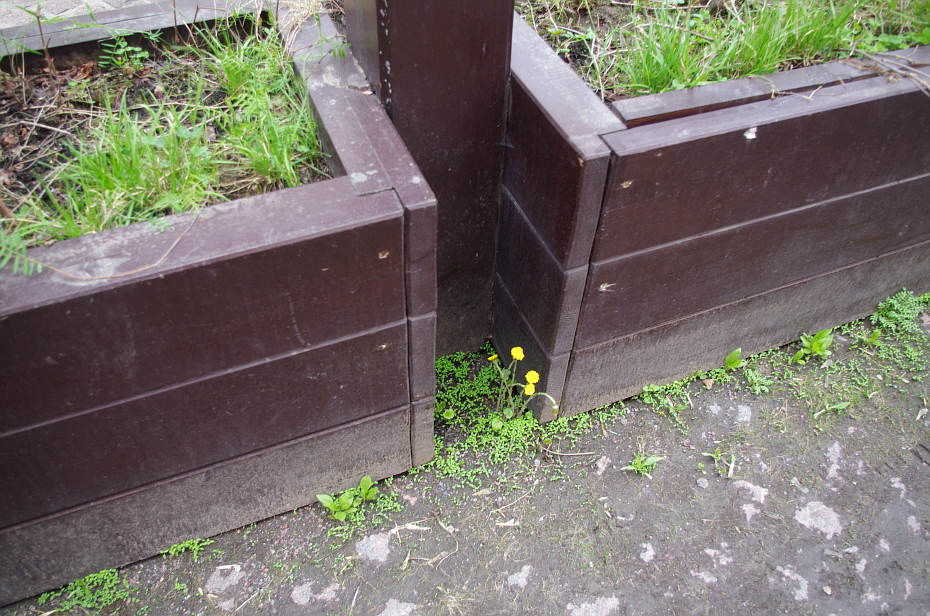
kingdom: Plantae
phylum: Tracheophyta
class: Magnoliopsida
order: Asterales
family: Asteraceae
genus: Tussilago
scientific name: Tussilago farfara
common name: Coltsfoot
